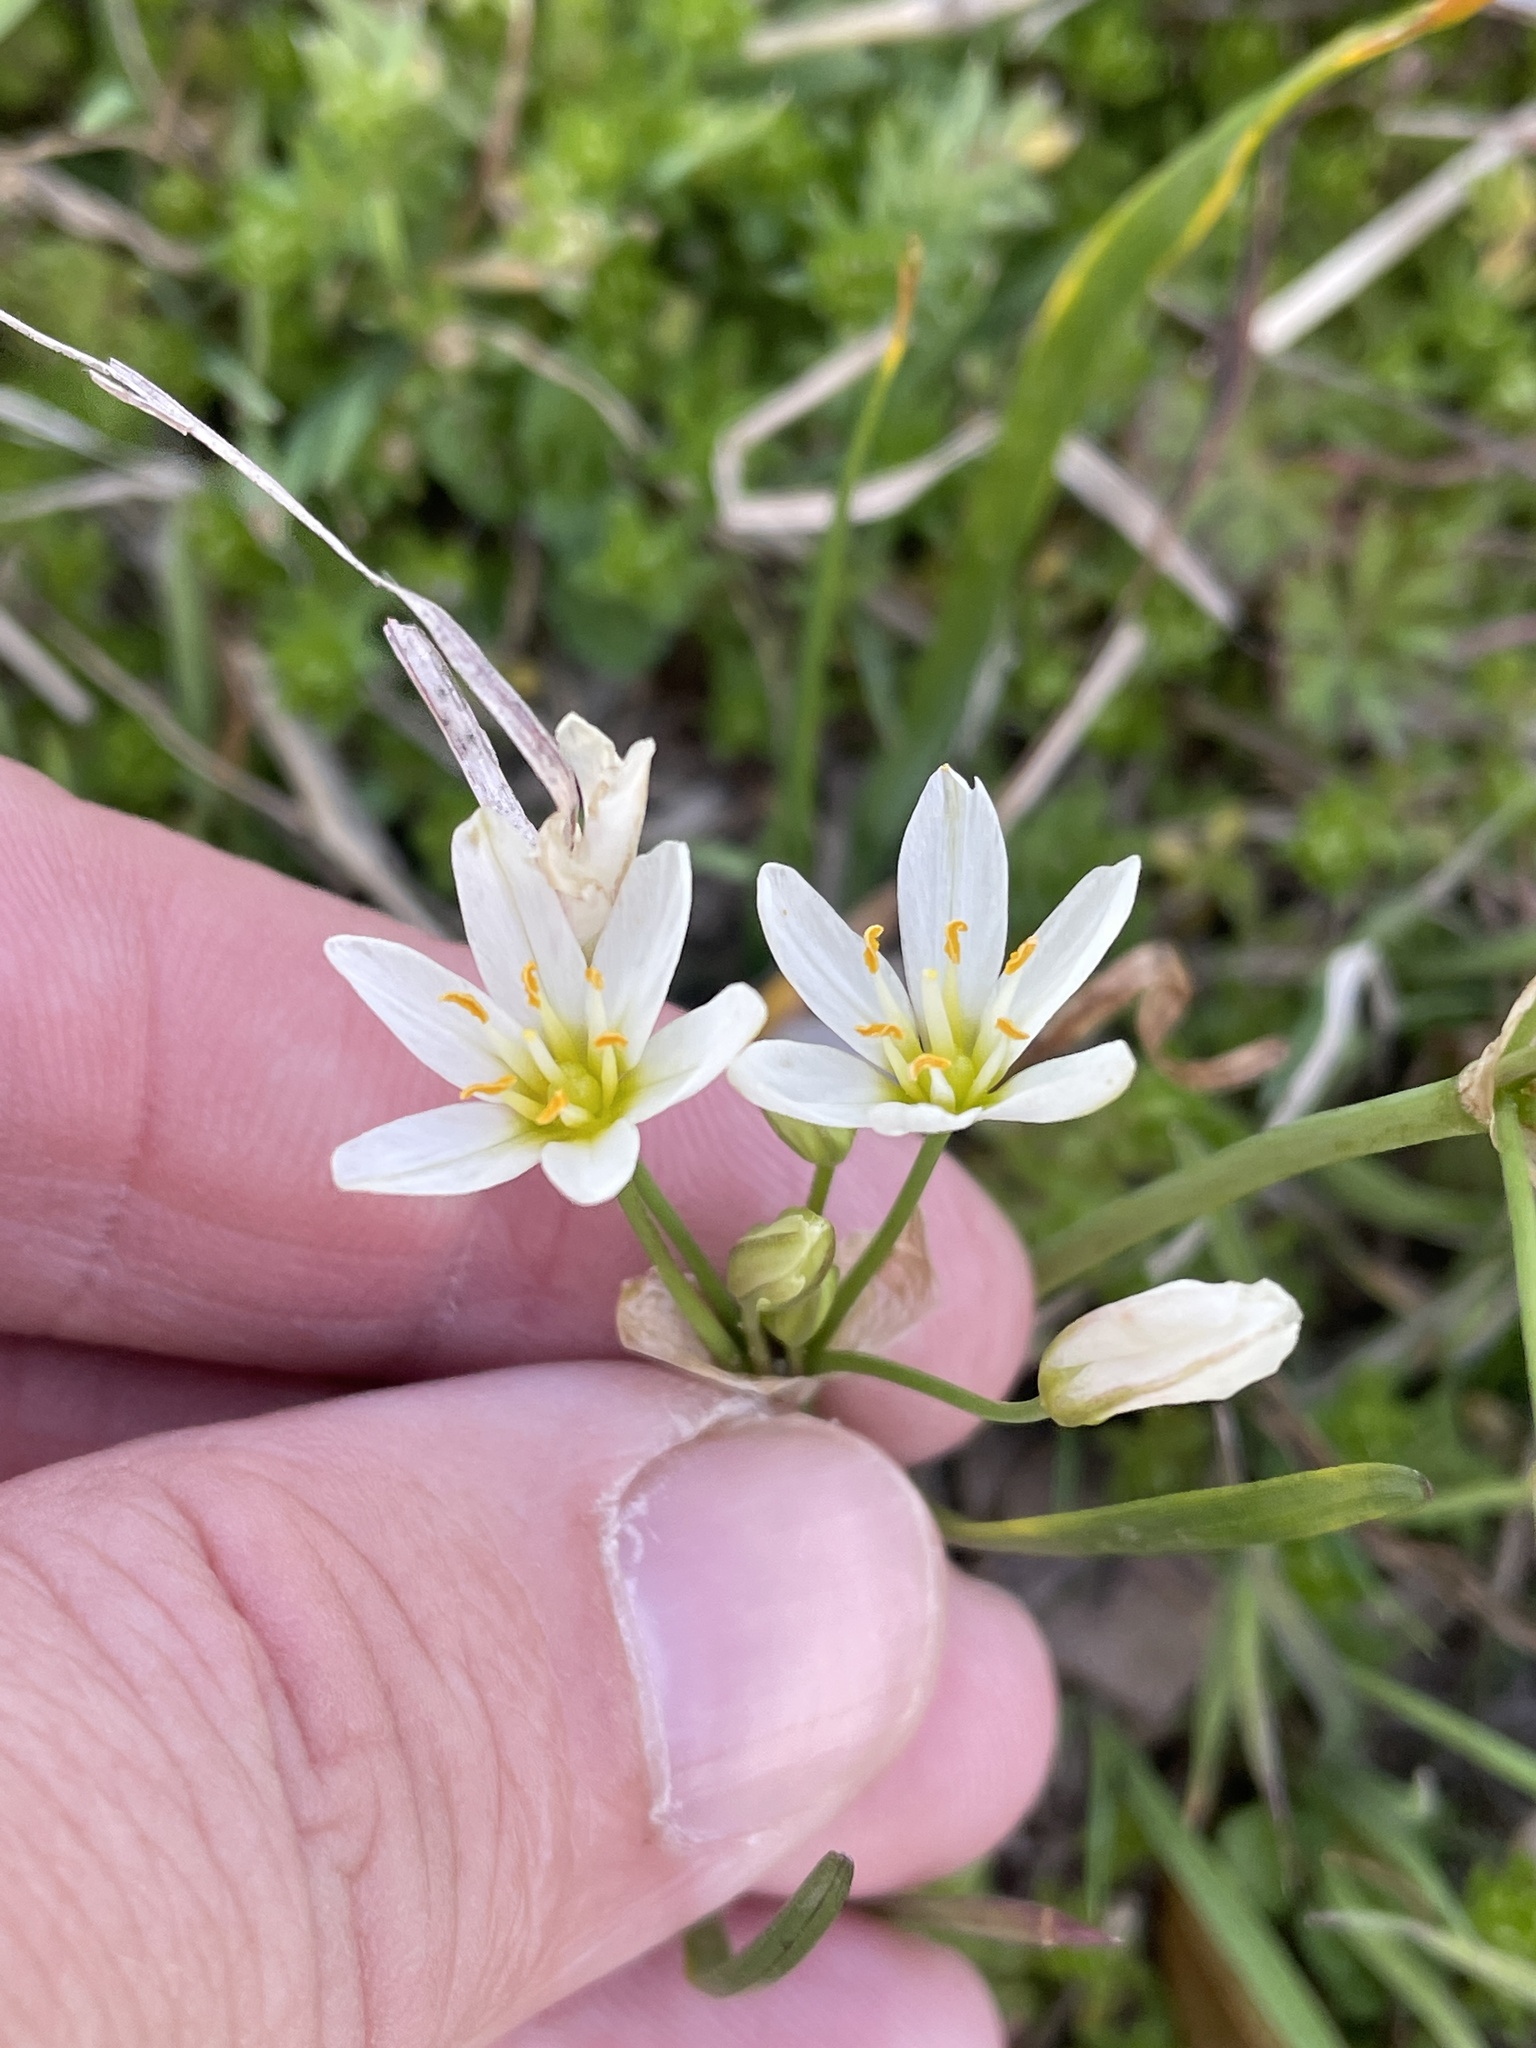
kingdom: Plantae
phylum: Tracheophyta
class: Liliopsida
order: Asparagales
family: Amaryllidaceae
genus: Nothoscordum
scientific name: Nothoscordum bivalve
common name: Crow-poison
